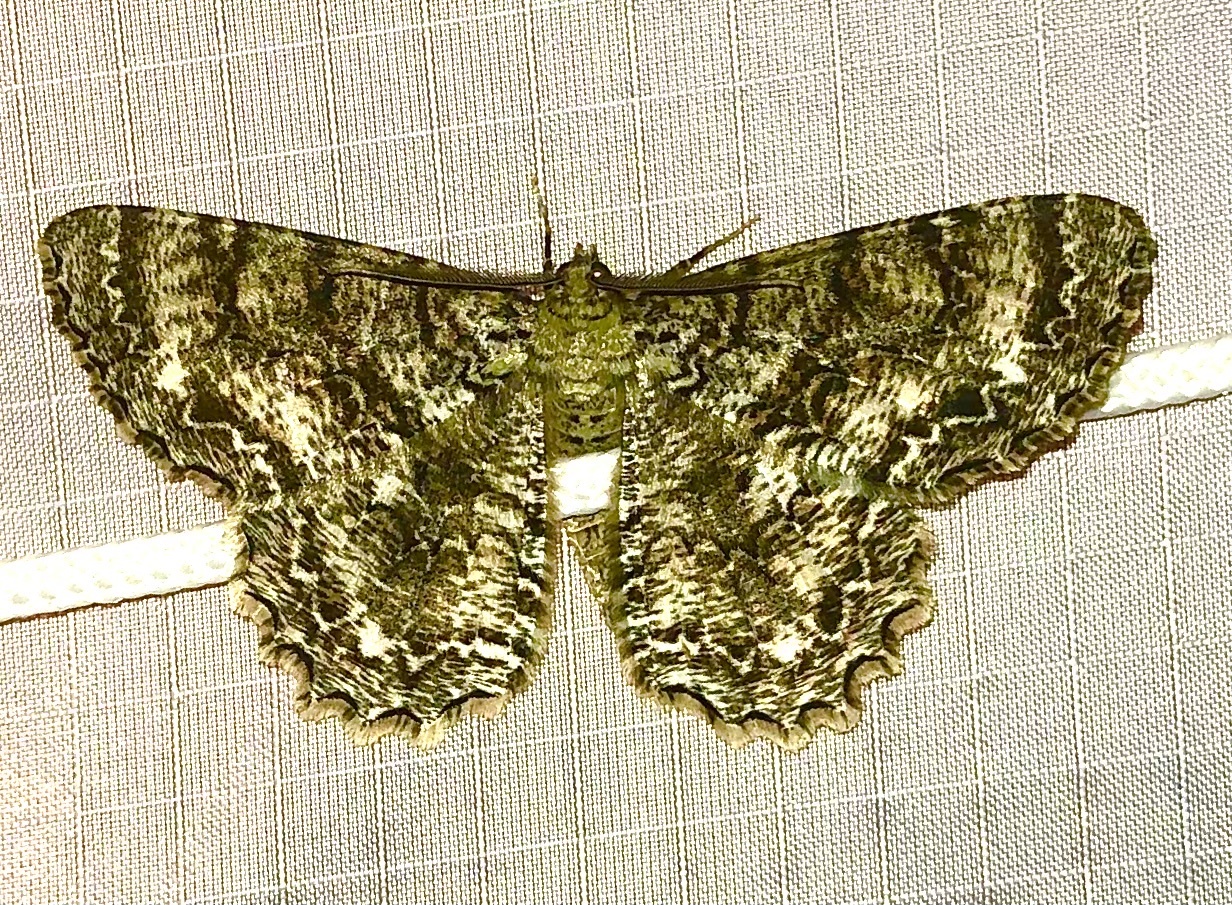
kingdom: Animalia
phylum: Arthropoda
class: Insecta
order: Lepidoptera
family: Geometridae
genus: Epimecis
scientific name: Epimecis hortaria
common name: Tulip-tree beauty
